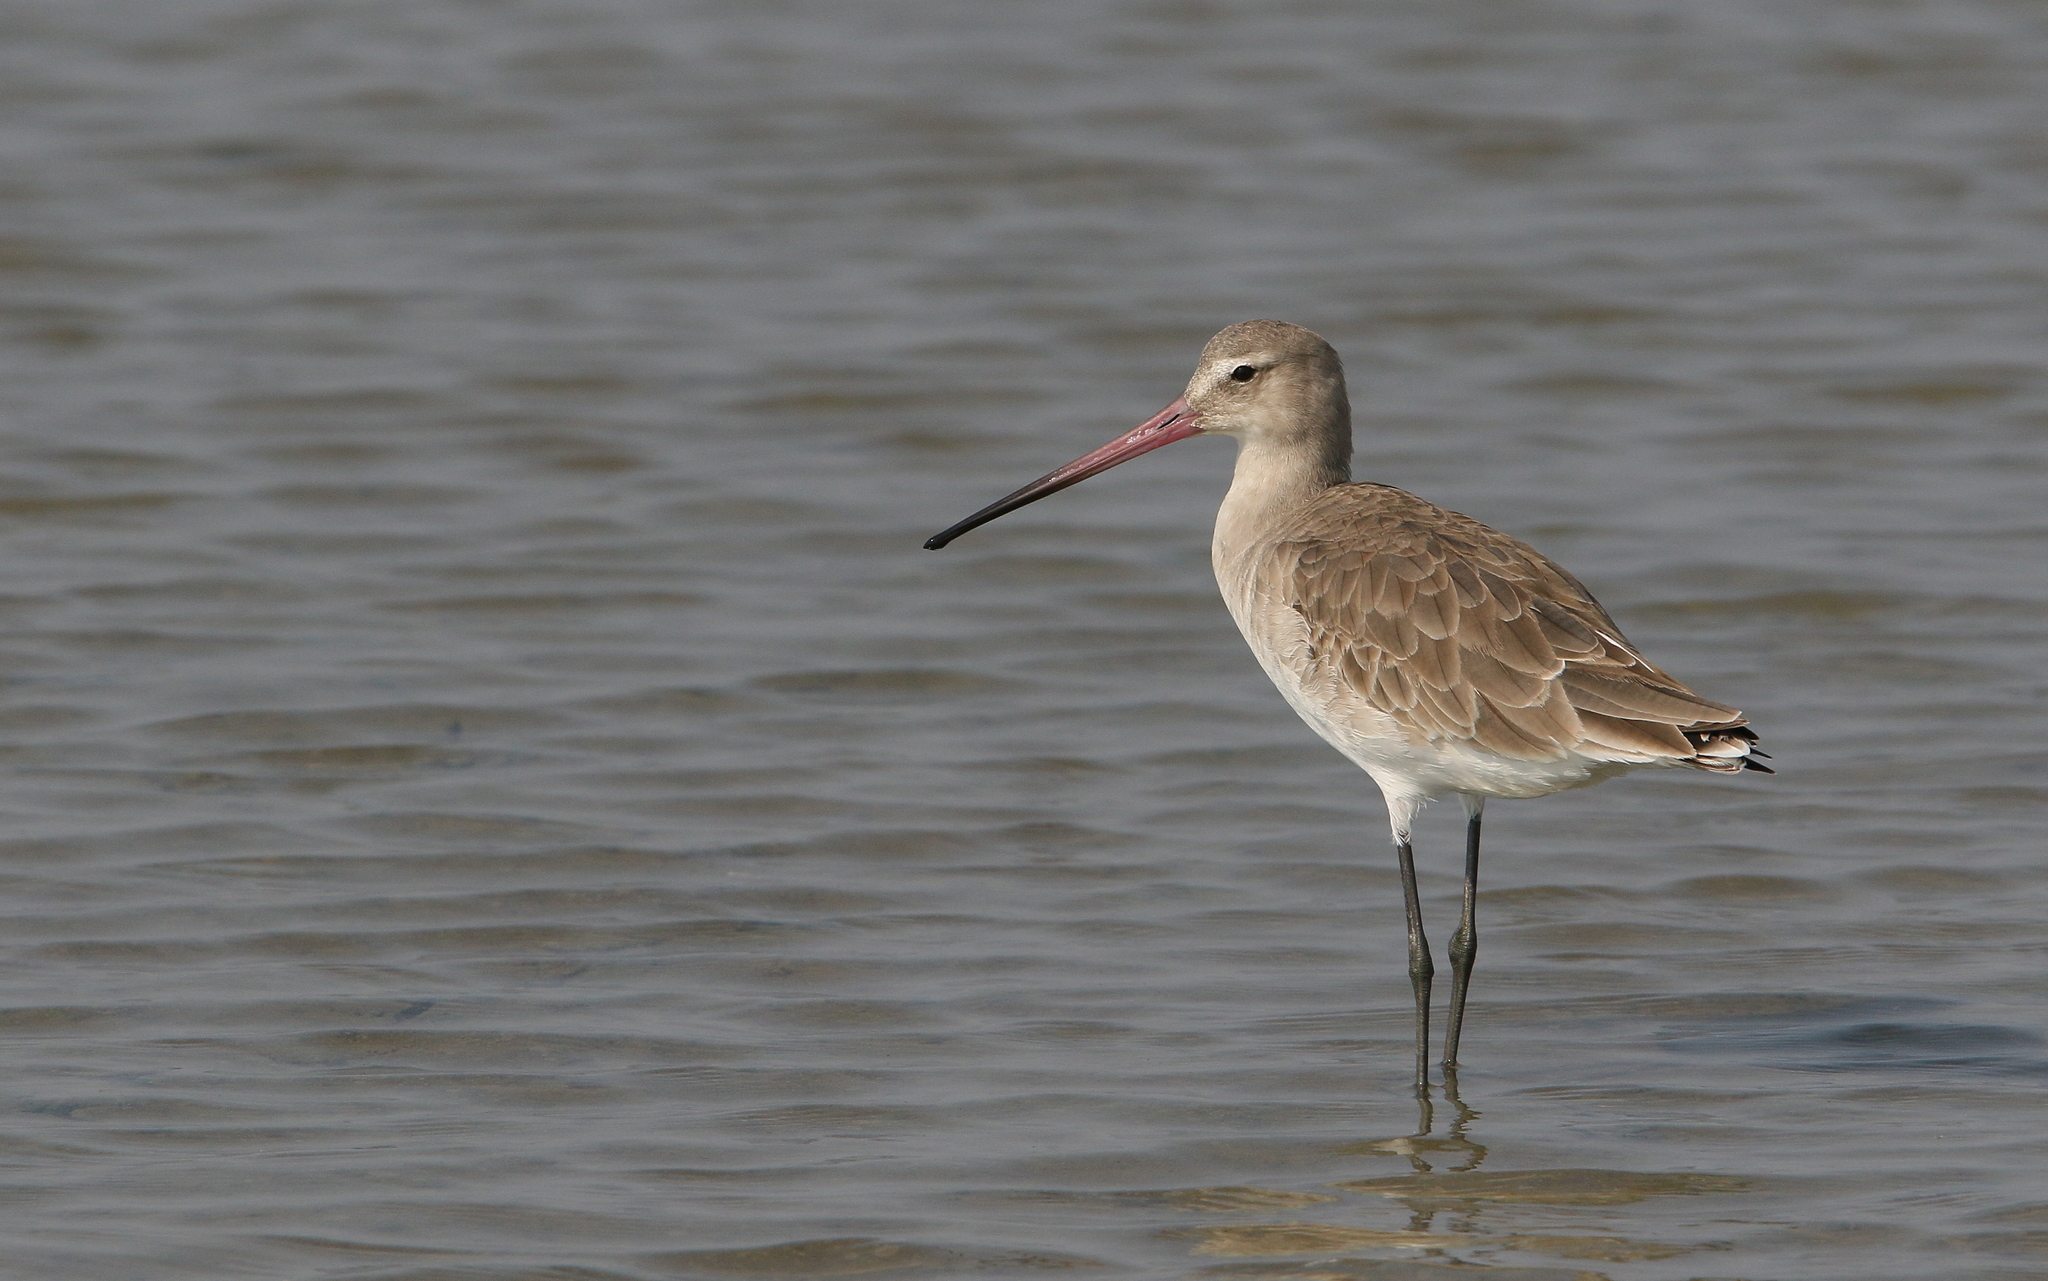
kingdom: Animalia
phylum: Chordata
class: Aves
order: Charadriiformes
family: Scolopacidae
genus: Limosa
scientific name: Limosa limosa
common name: Black-tailed godwit
